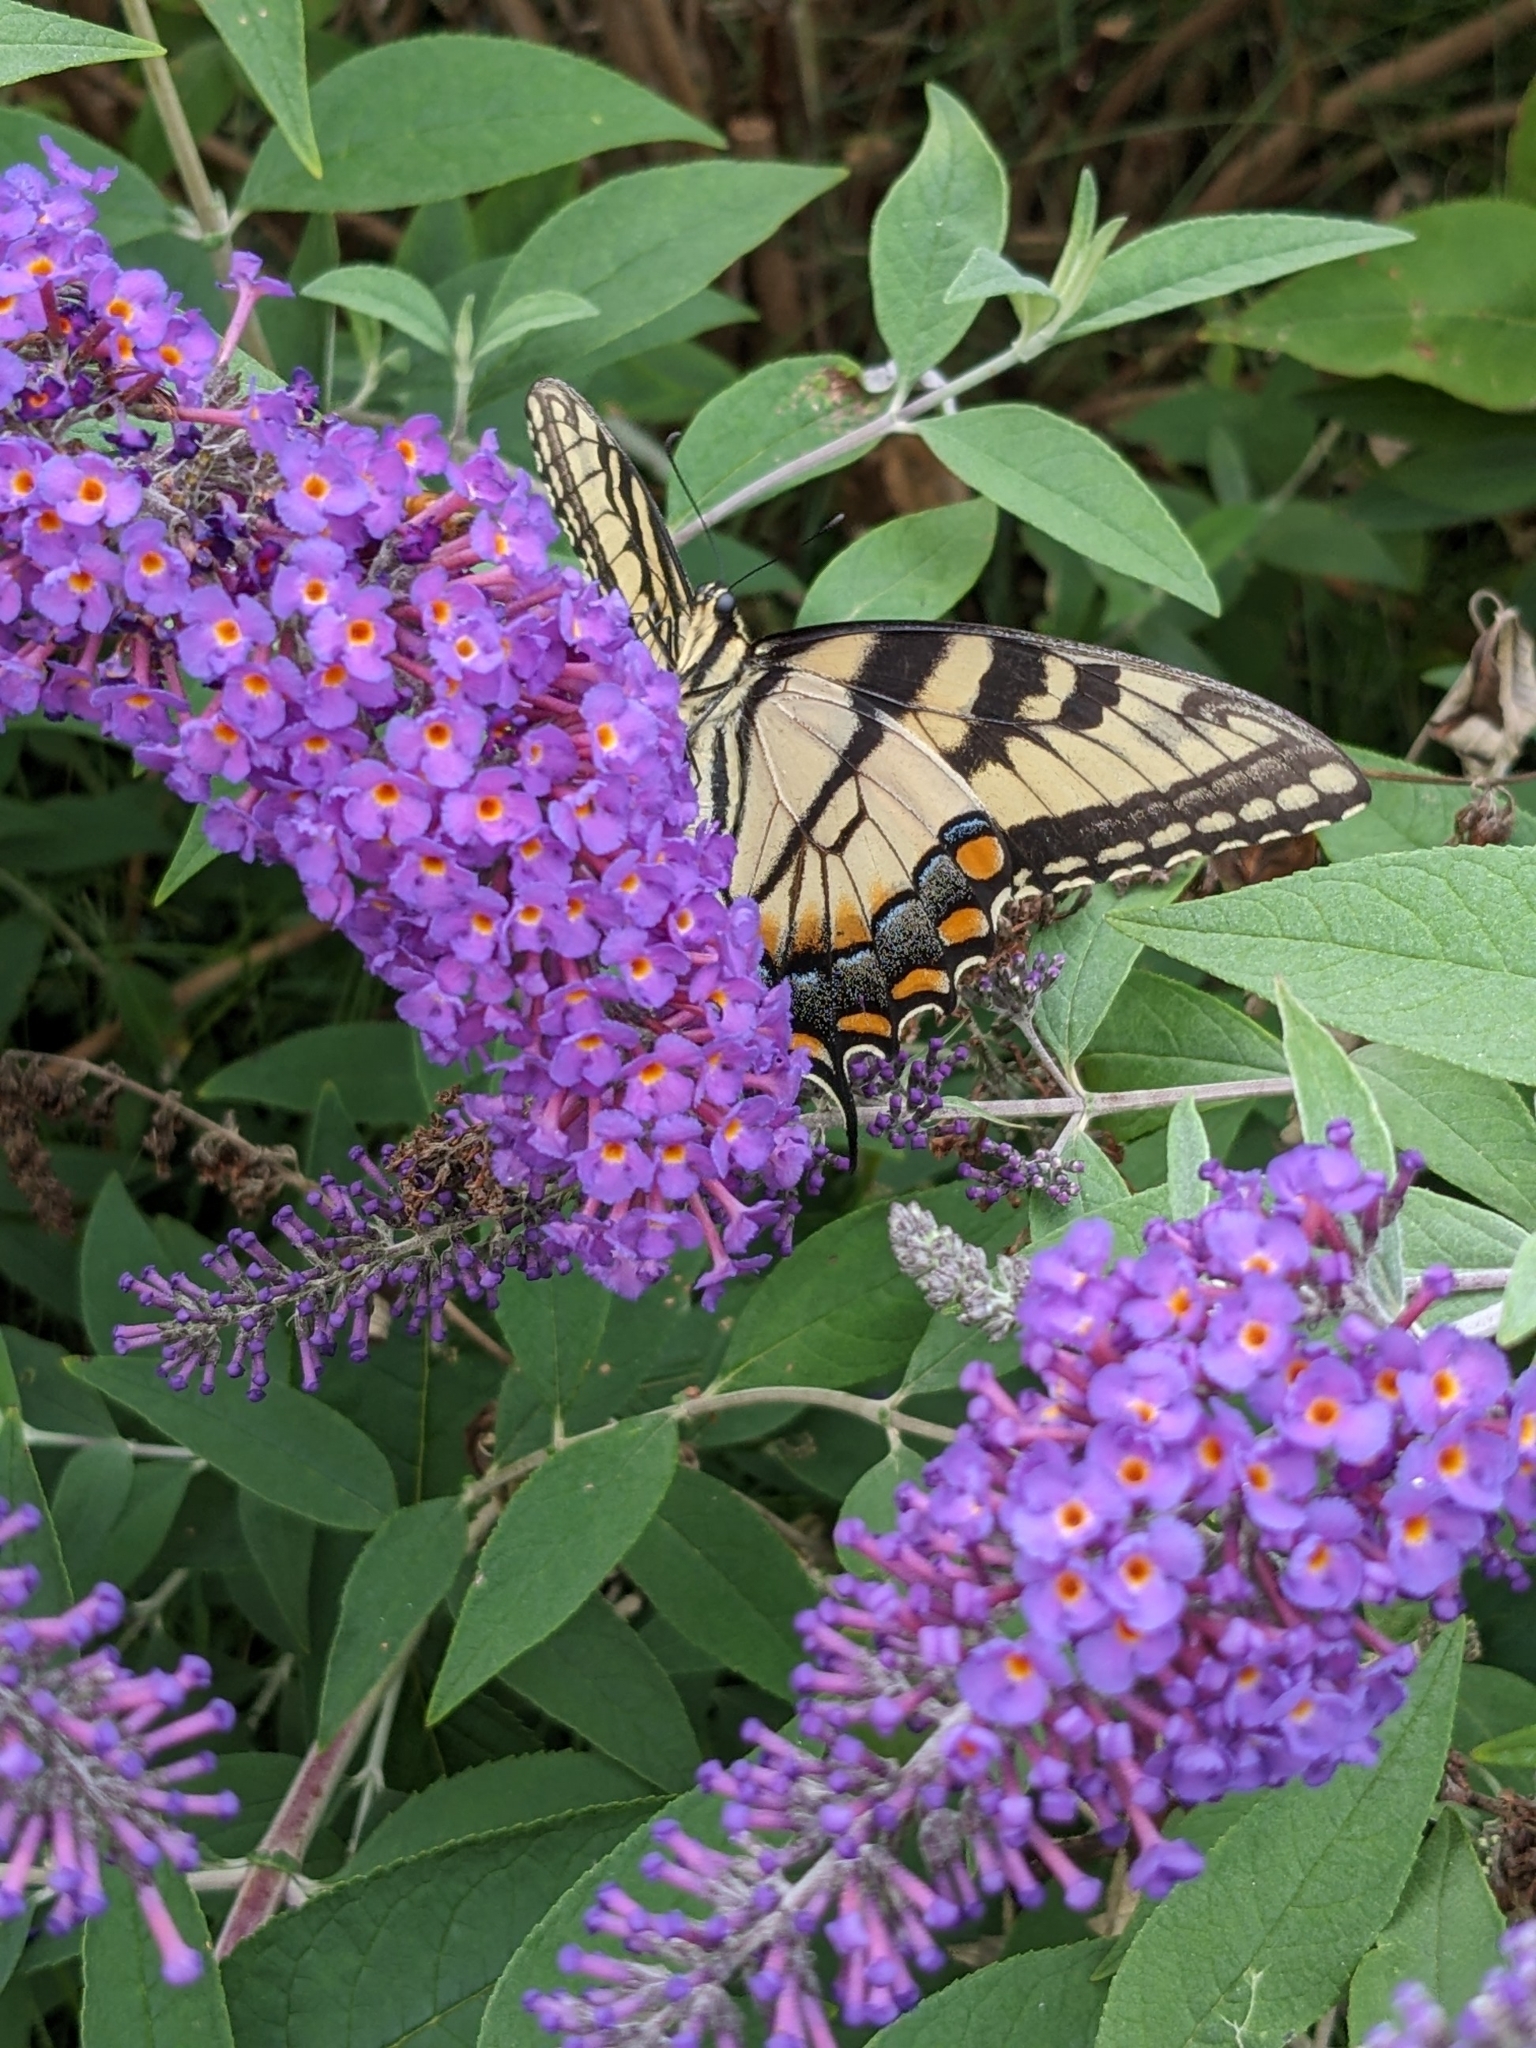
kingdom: Animalia
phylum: Arthropoda
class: Insecta
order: Lepidoptera
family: Papilionidae
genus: Papilio
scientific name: Papilio glaucus
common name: Tiger swallowtail
